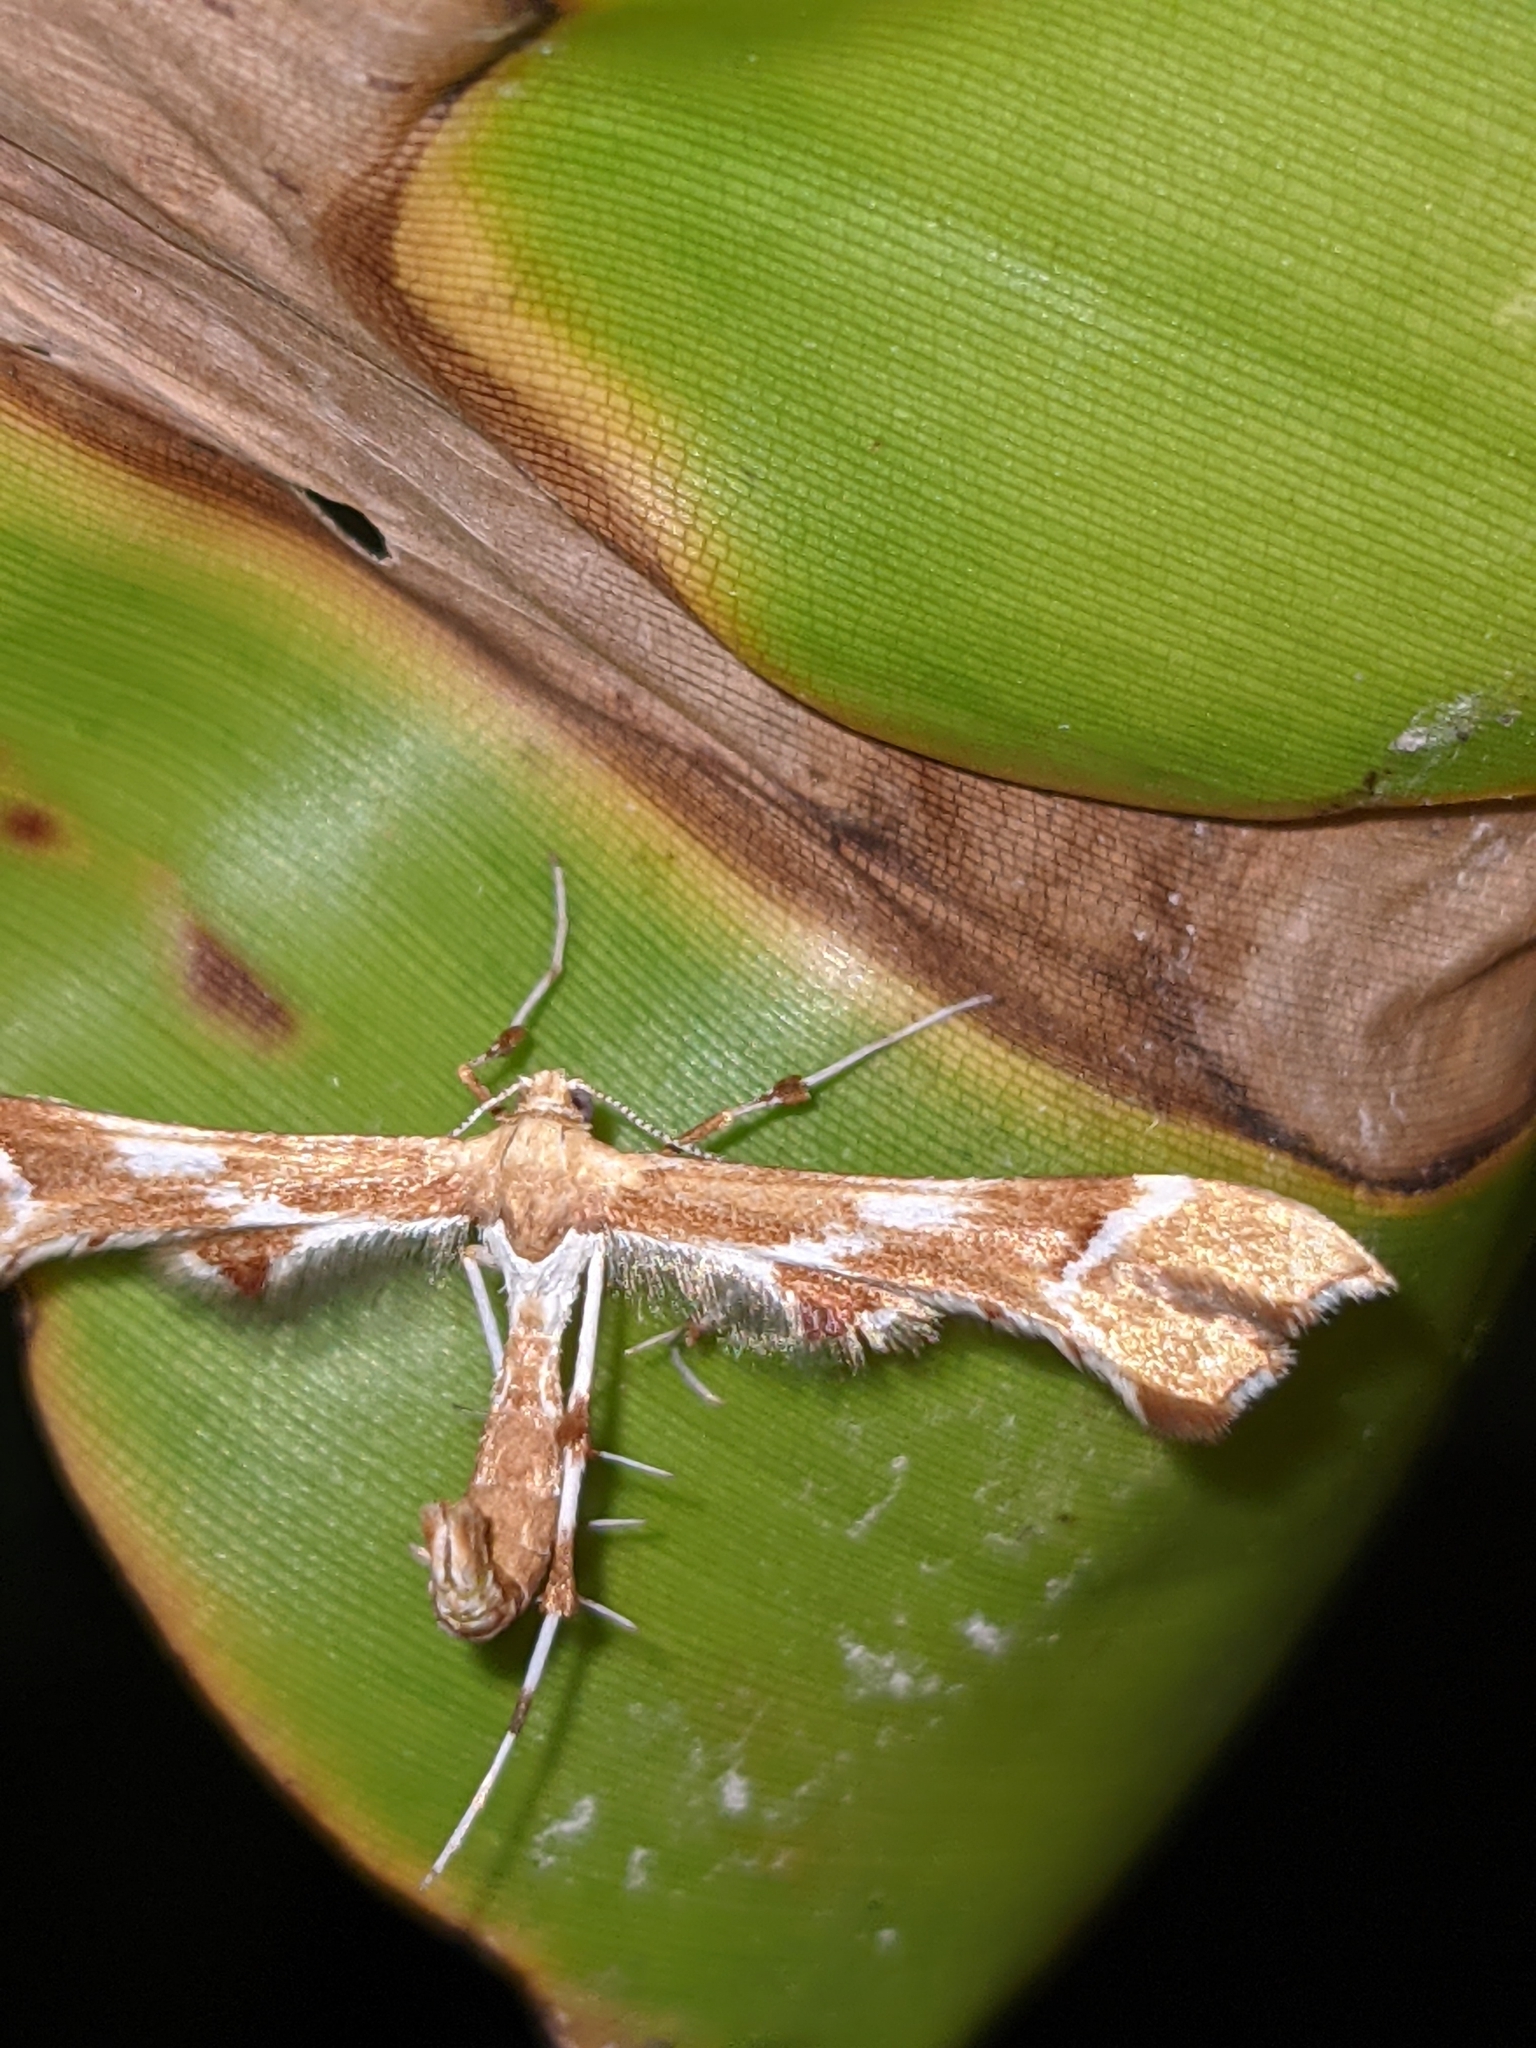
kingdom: Animalia
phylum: Arthropoda
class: Insecta
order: Lepidoptera
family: Pterophoridae
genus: Cnaemidophorus
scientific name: Cnaemidophorus rhododactyla
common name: Rose plume
